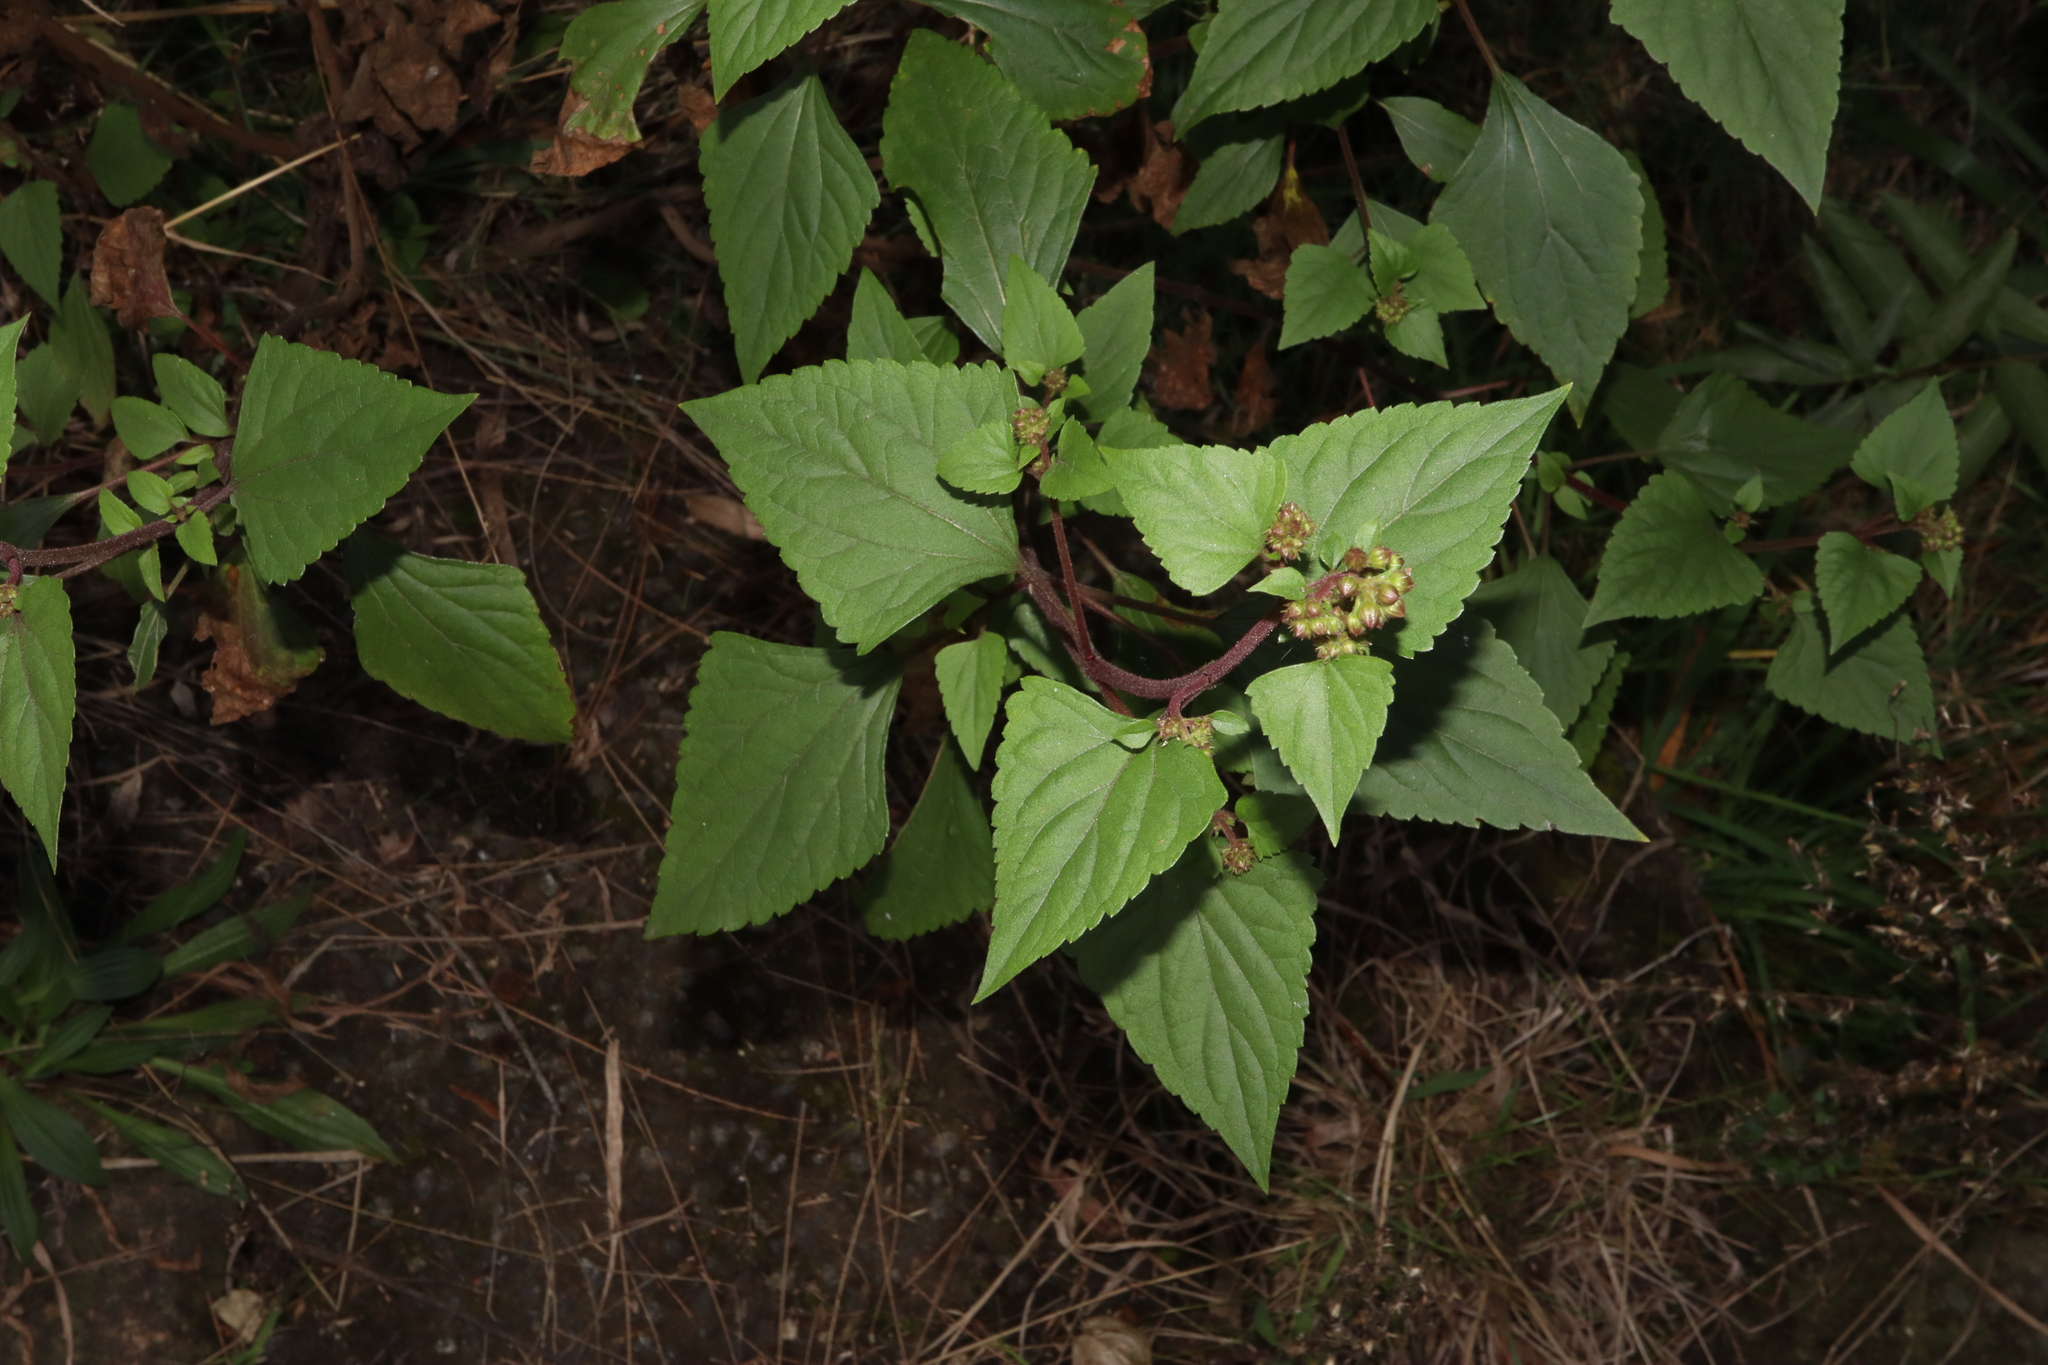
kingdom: Plantae
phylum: Tracheophyta
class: Magnoliopsida
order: Asterales
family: Asteraceae
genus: Ageratina
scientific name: Ageratina adenophora
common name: Sticky snakeroot
